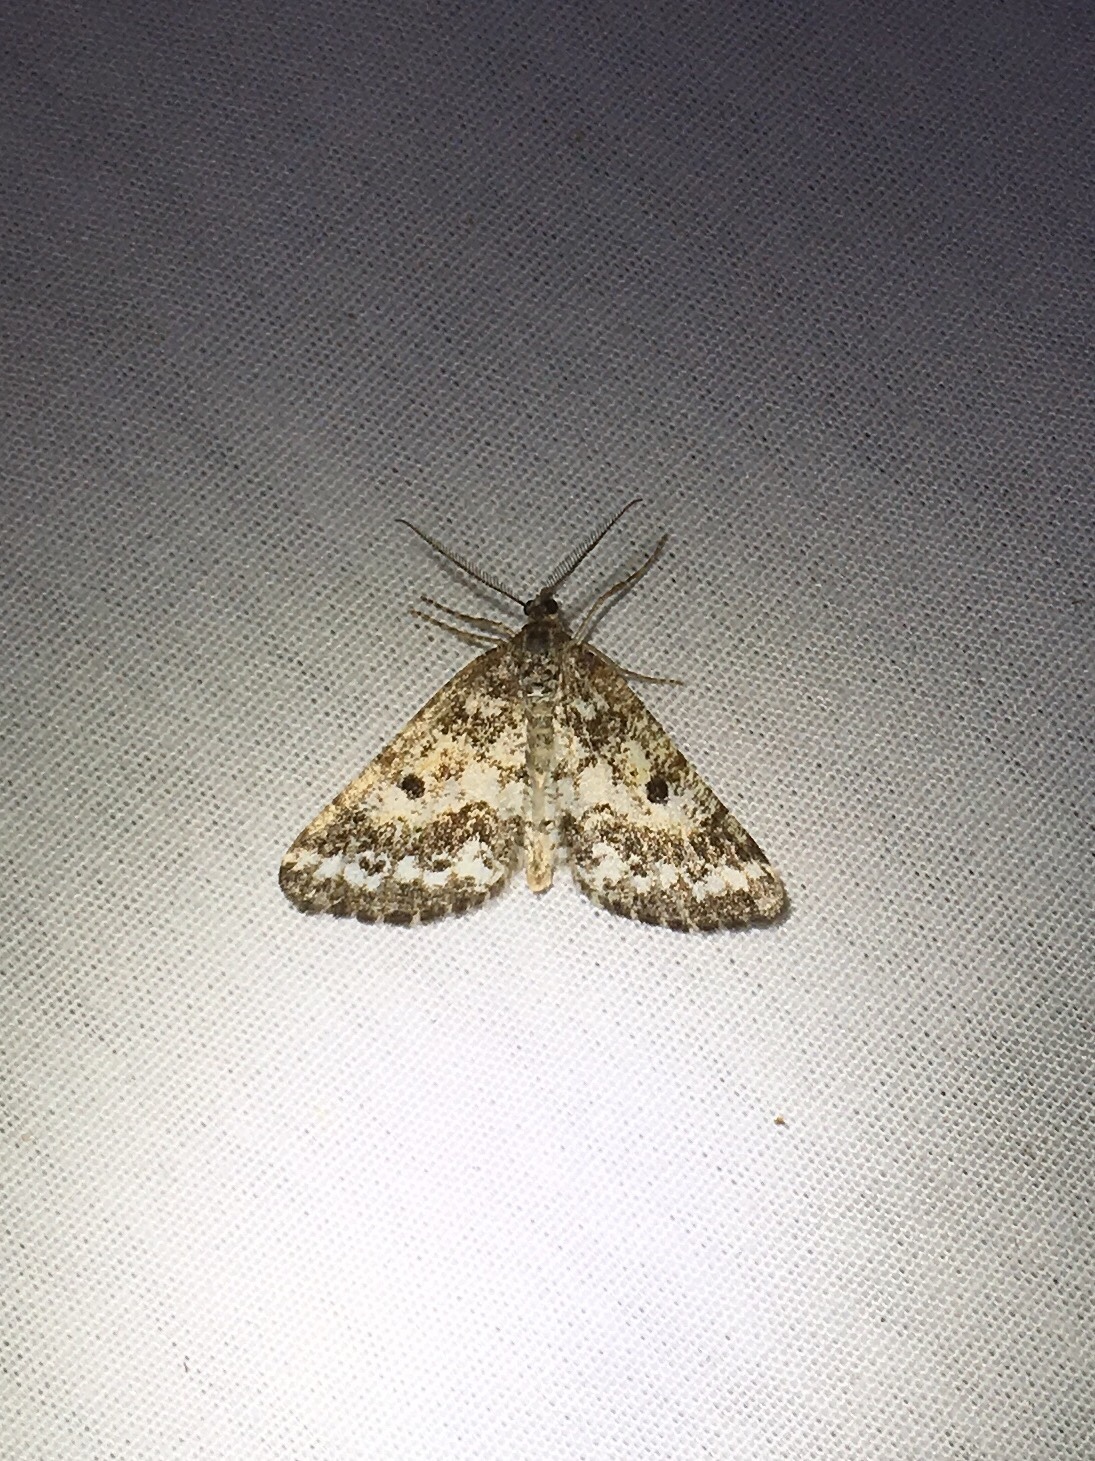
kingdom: Animalia
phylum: Arthropoda
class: Insecta
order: Lepidoptera
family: Geometridae
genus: Eufidonia
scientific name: Eufidonia notataria
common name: Powder moth
